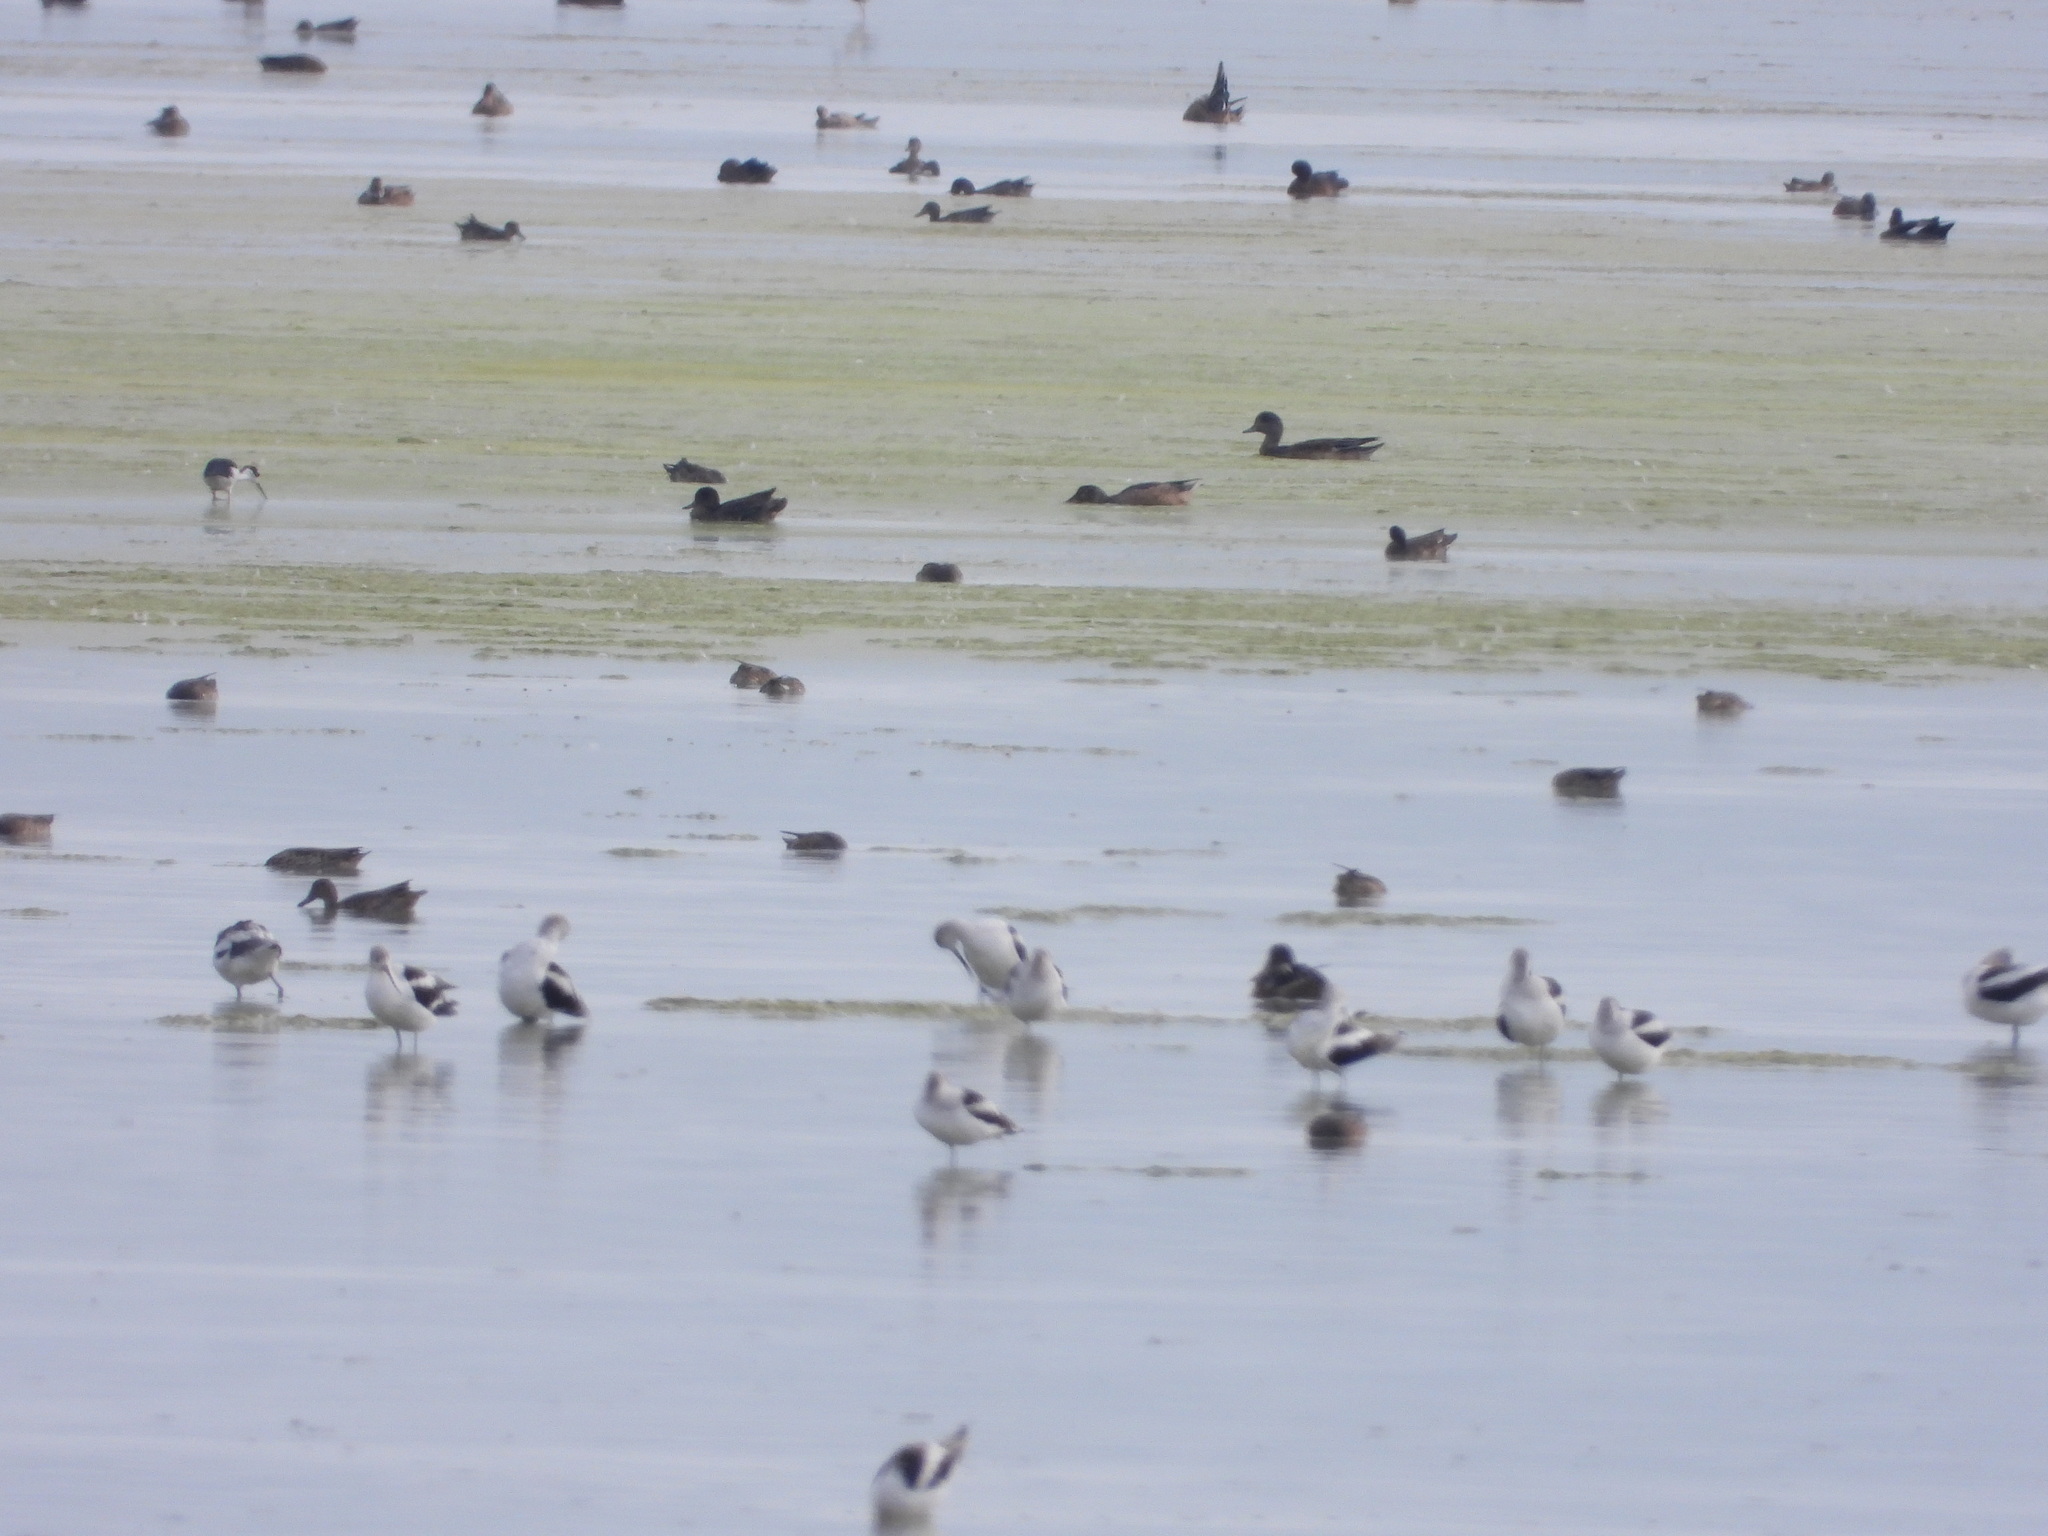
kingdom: Animalia
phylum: Chordata
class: Aves
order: Anseriformes
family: Anatidae
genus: Mareca
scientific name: Mareca americana
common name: American wigeon
